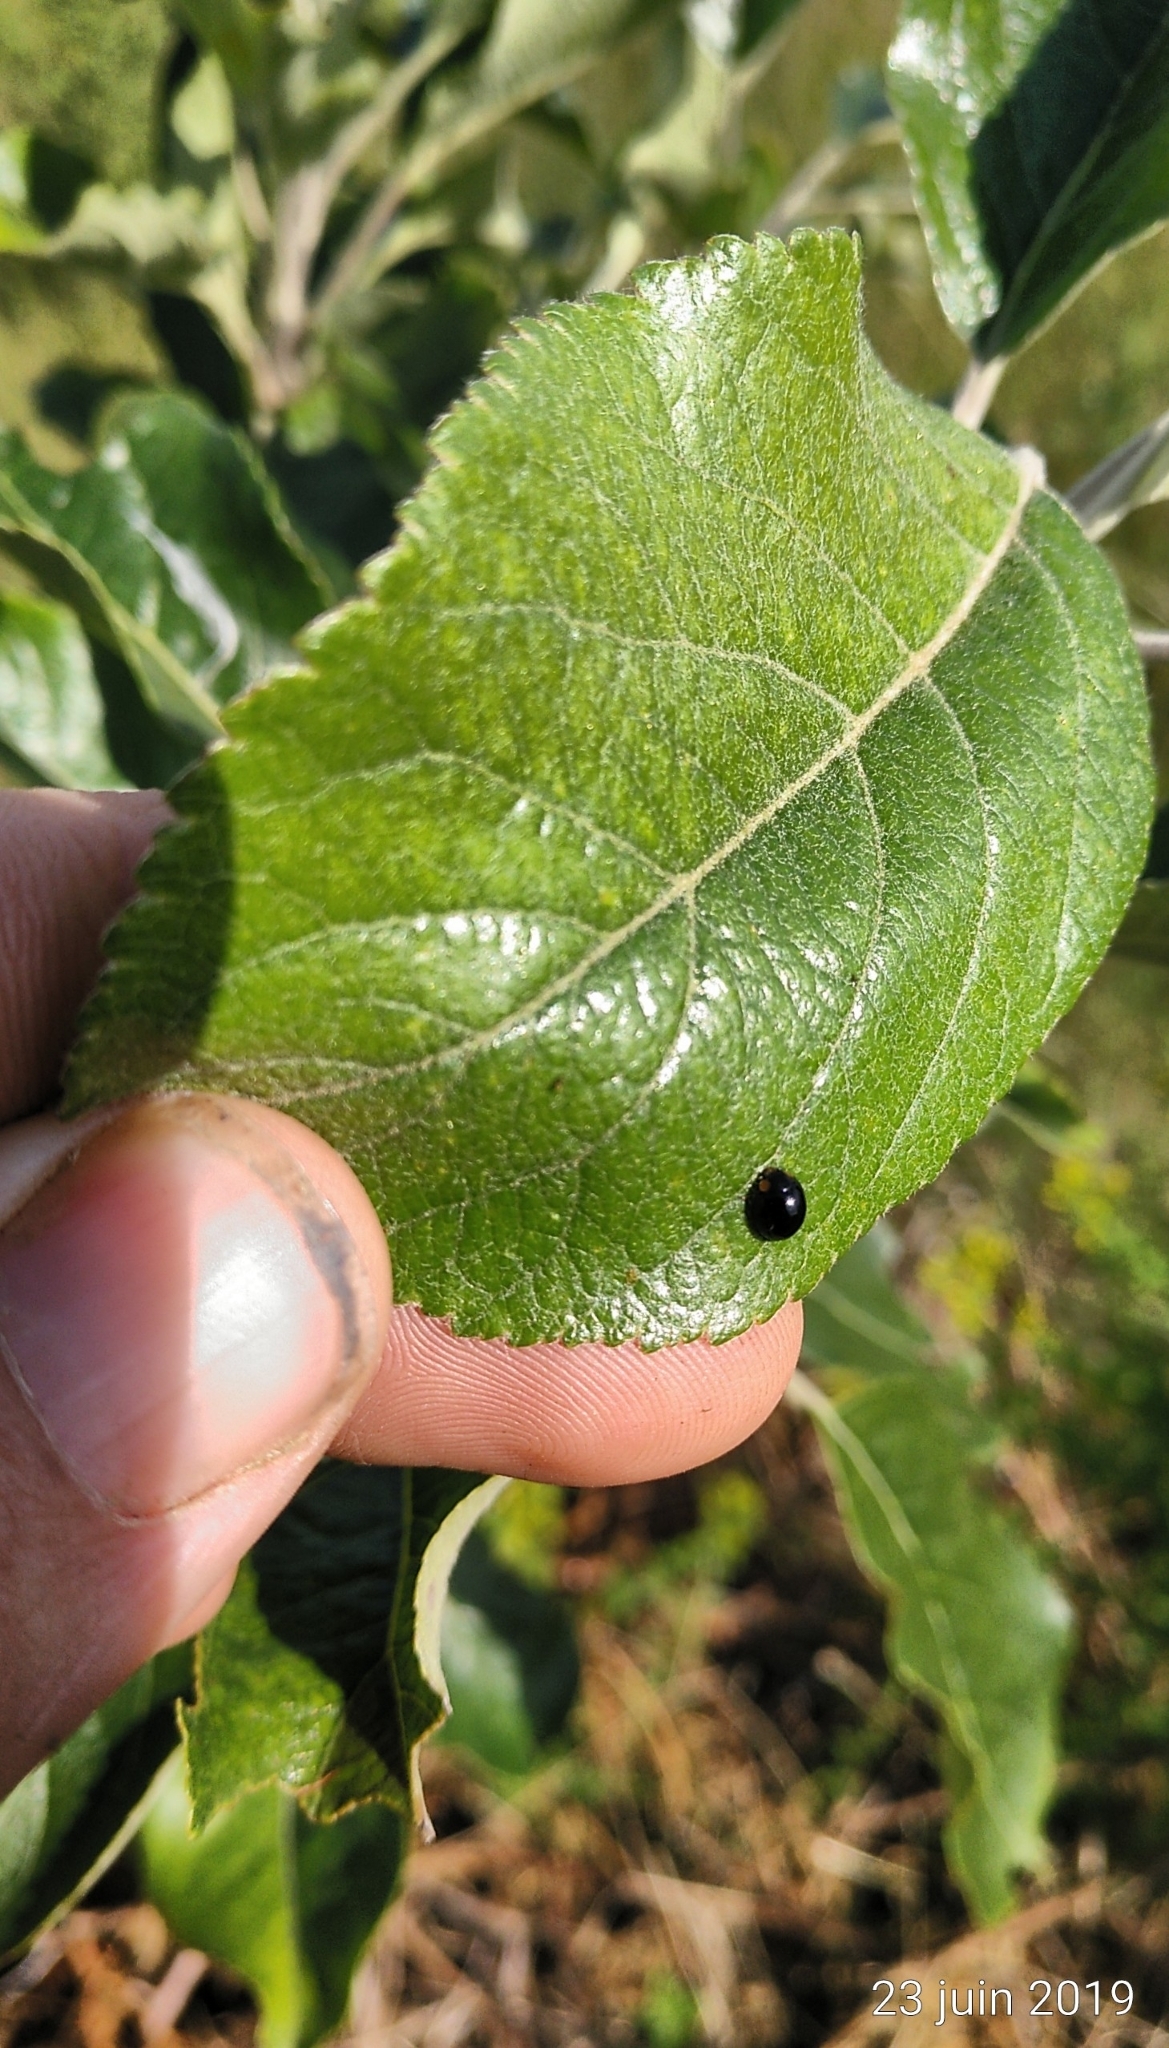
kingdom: Animalia
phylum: Arthropoda
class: Insecta
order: Coleoptera
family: Coccinellidae
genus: Parexochomus
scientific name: Parexochomus nigromaculatus
